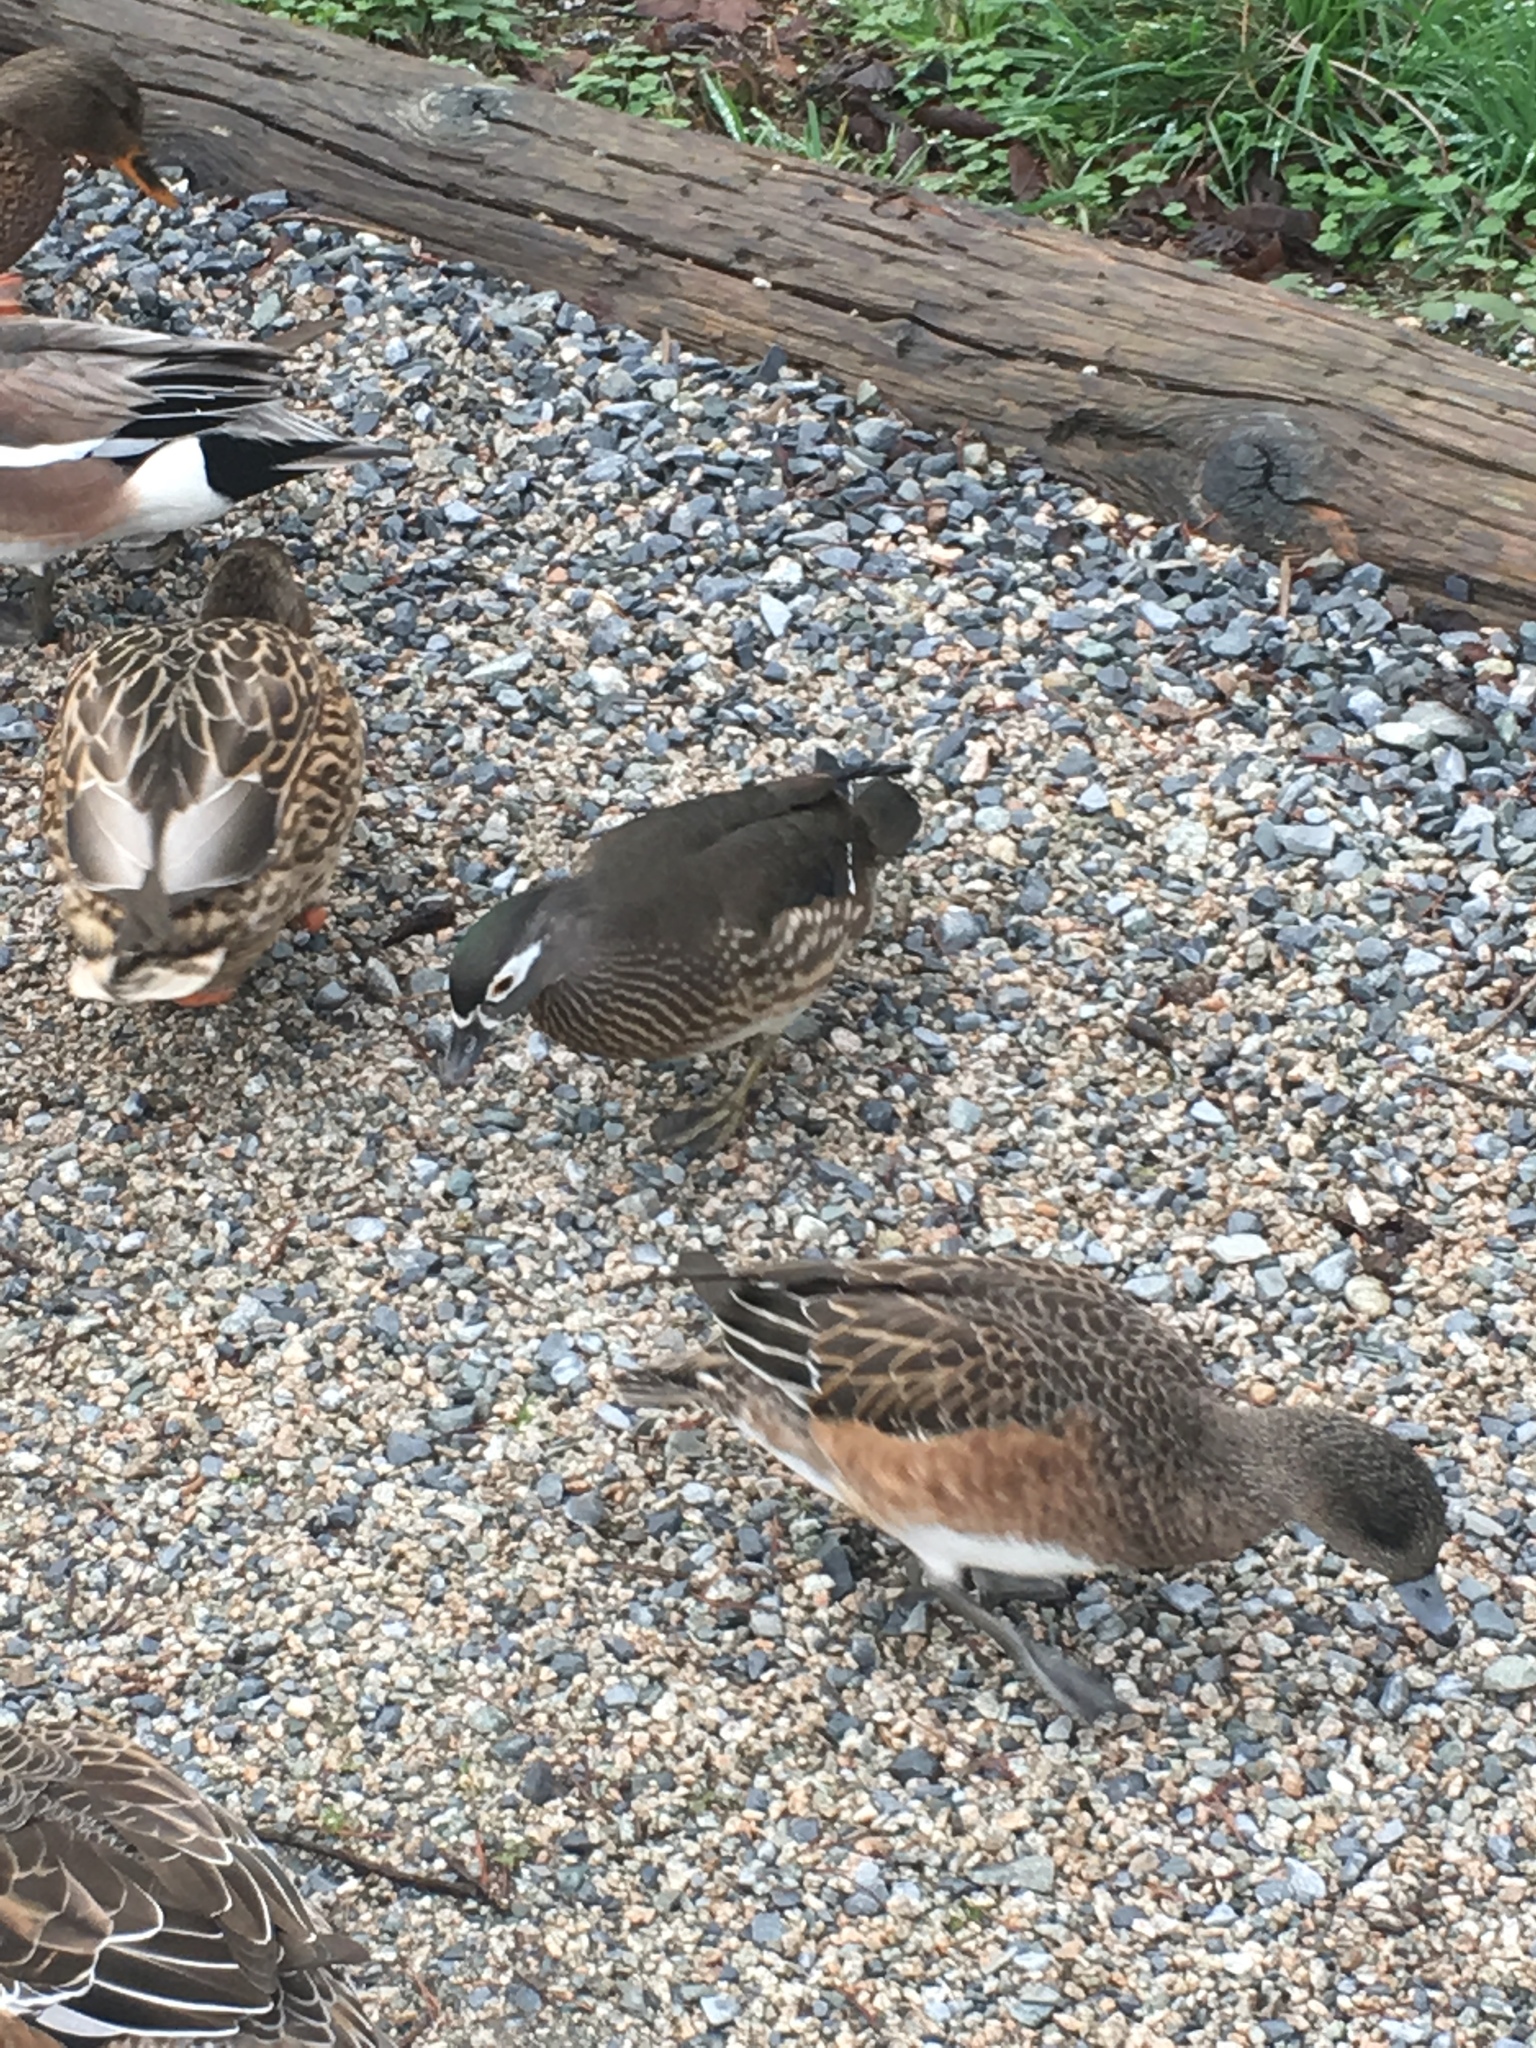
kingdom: Animalia
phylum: Chordata
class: Aves
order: Anseriformes
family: Anatidae
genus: Aix
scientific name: Aix sponsa
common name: Wood duck
